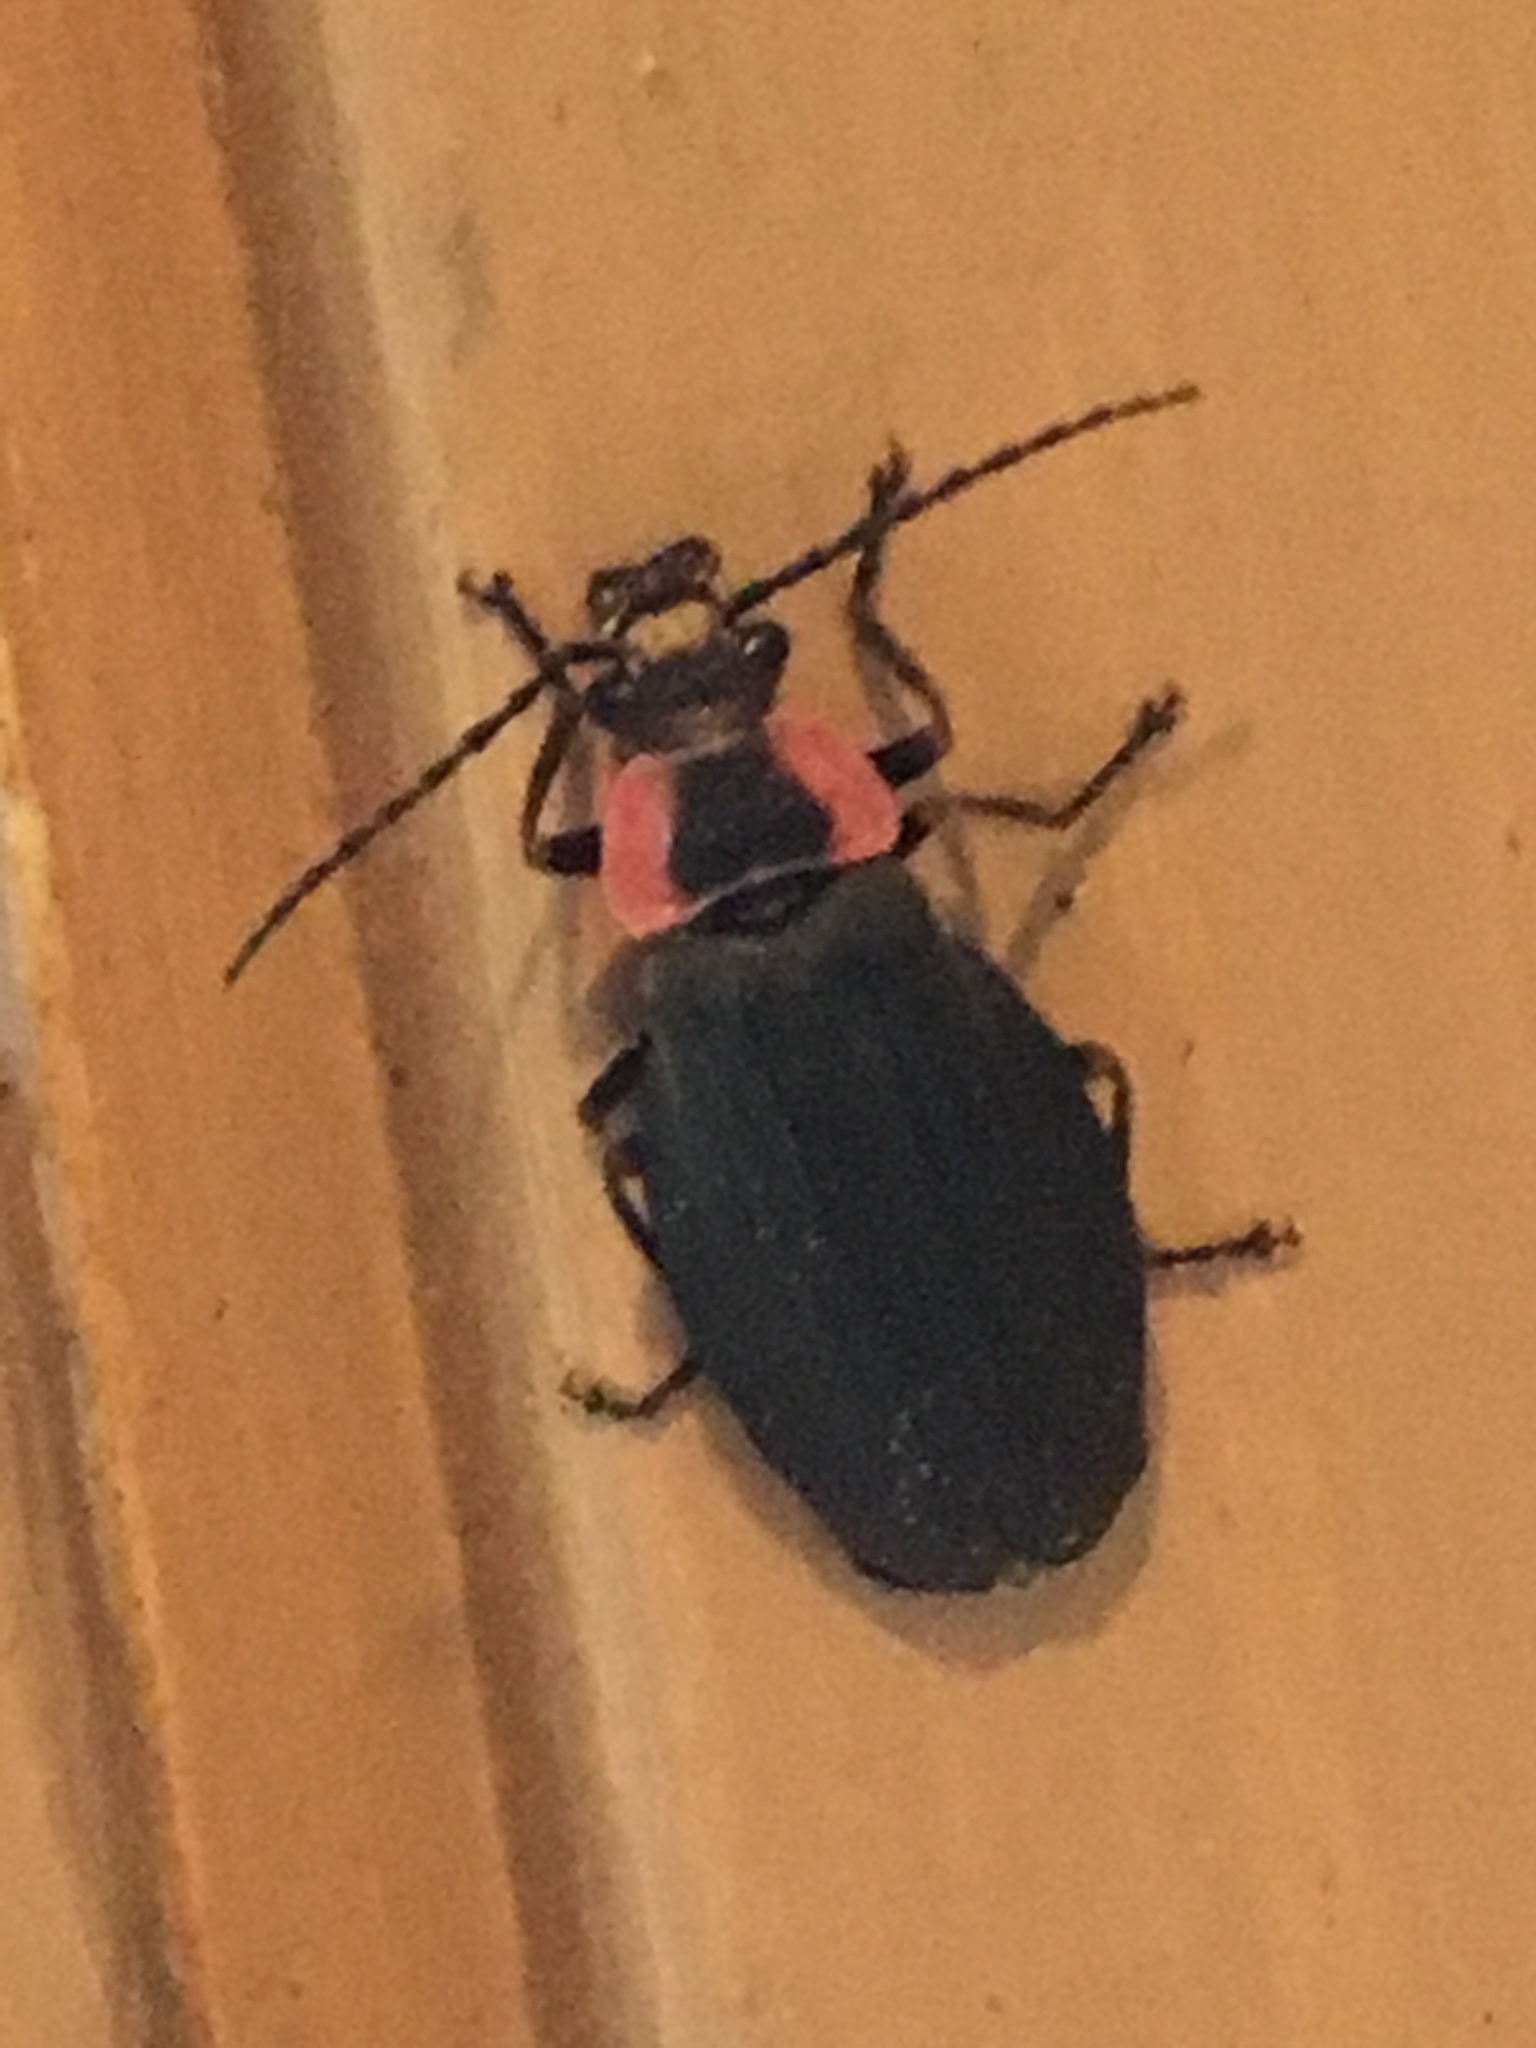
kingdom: Animalia
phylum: Arthropoda
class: Insecta
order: Coleoptera
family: Cantharidae
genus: Podabrus
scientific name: Podabrus tricostatus
